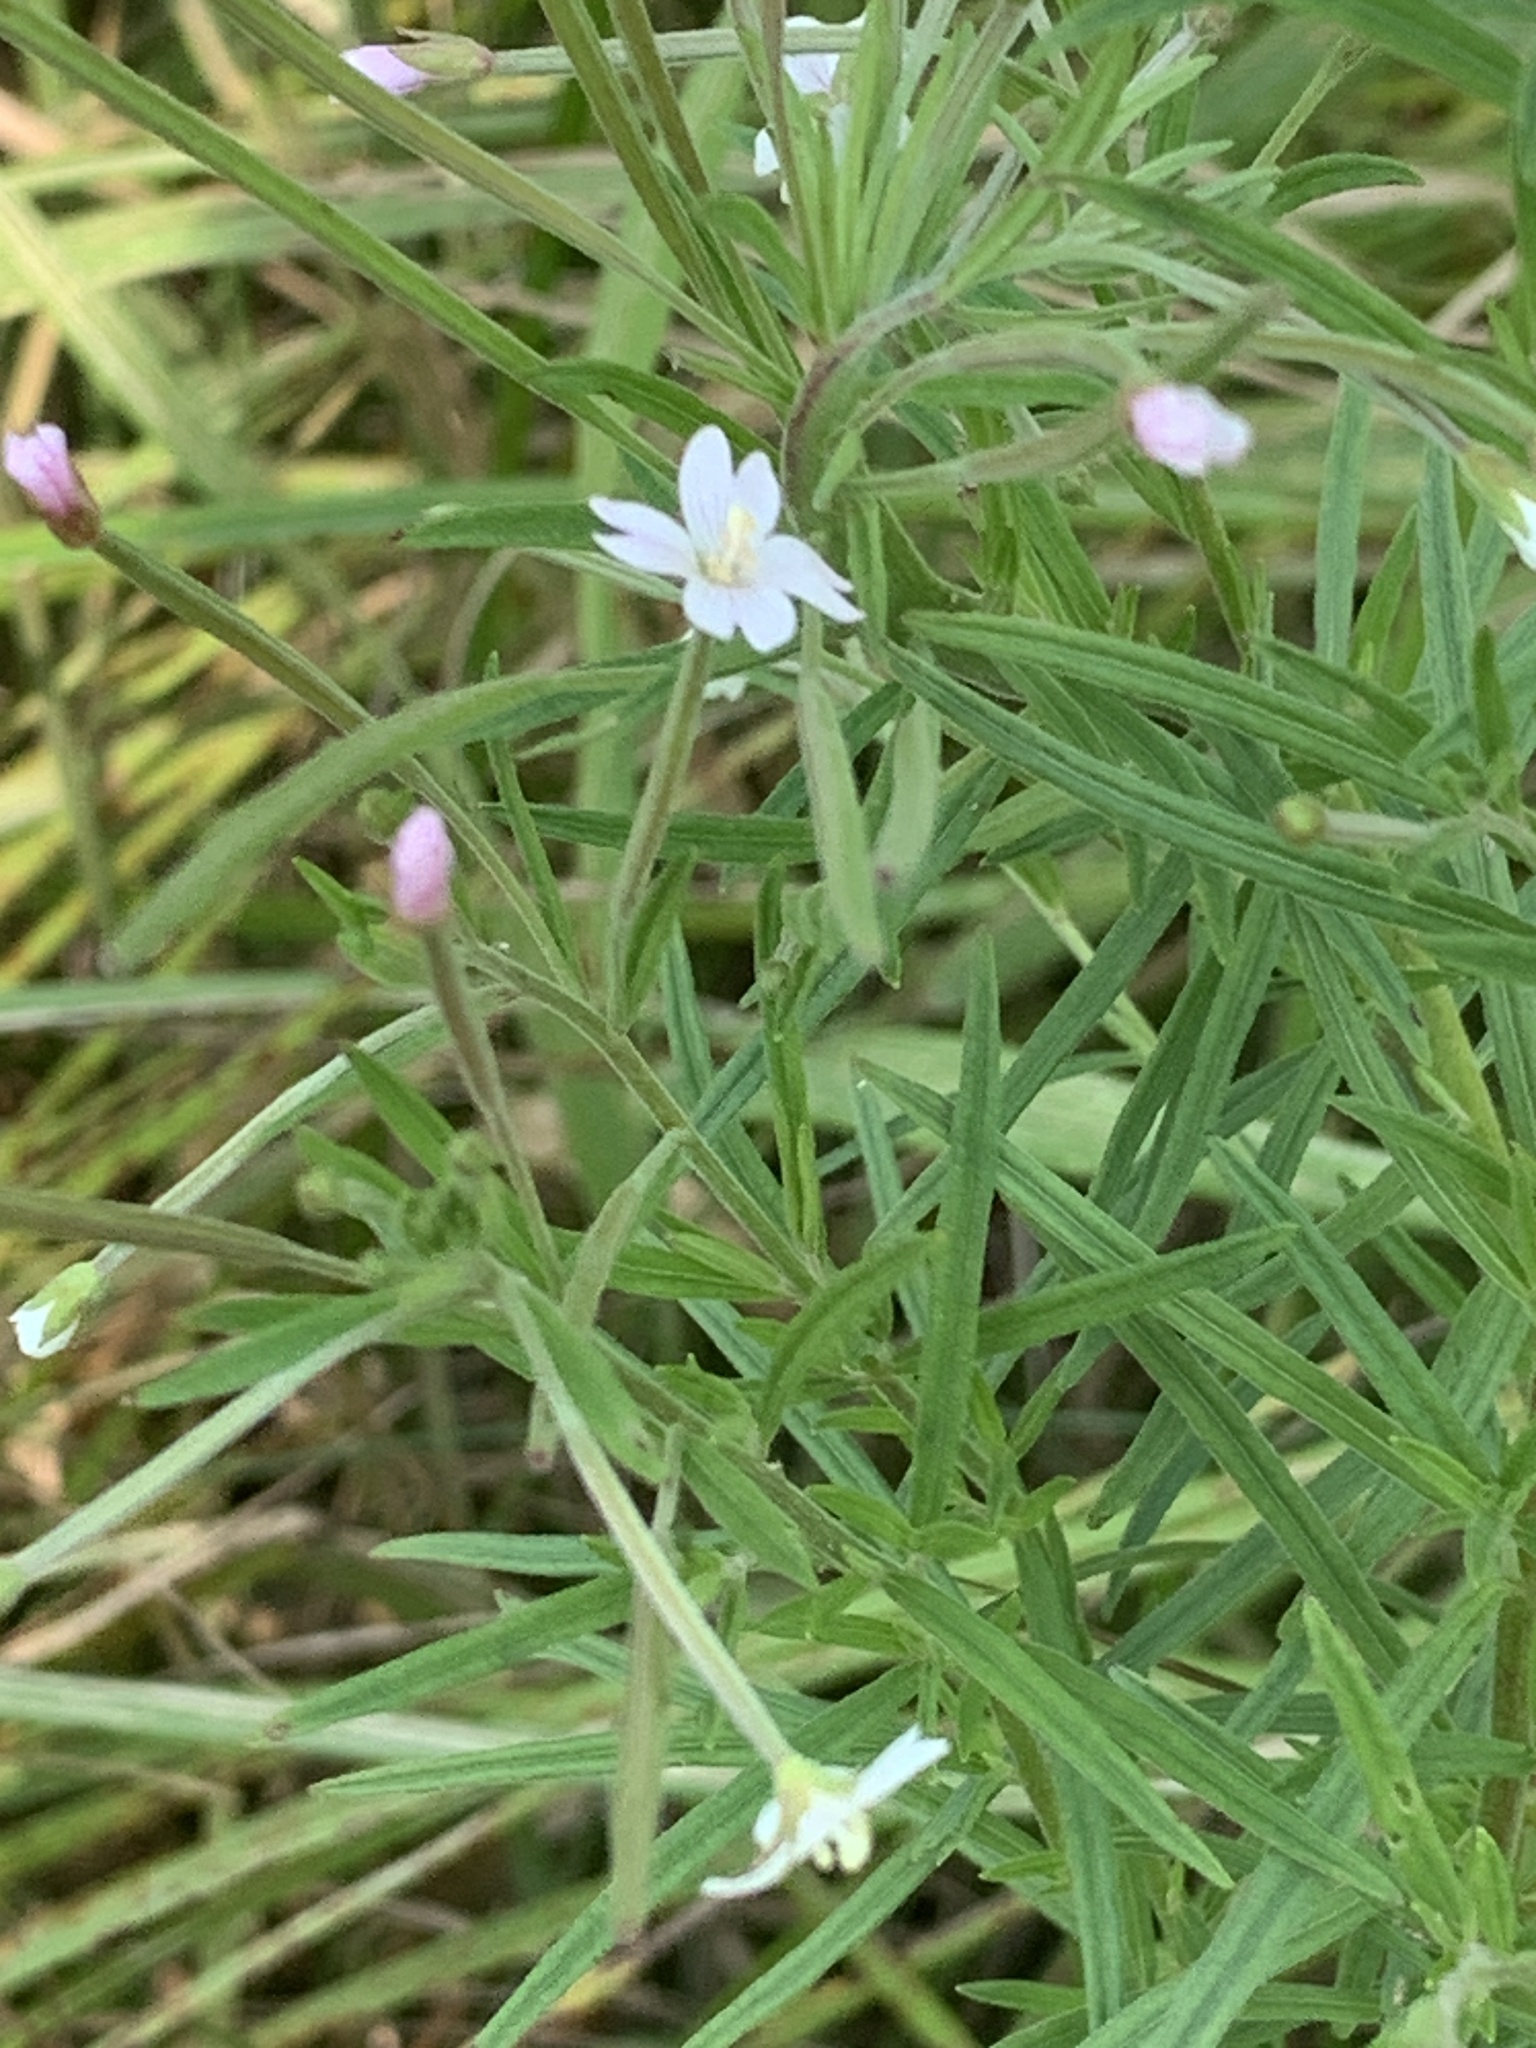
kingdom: Plantae
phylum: Tracheophyta
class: Magnoliopsida
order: Myrtales
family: Onagraceae
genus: Epilobium
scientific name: Epilobium leptophyllum
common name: Bog willowherb
